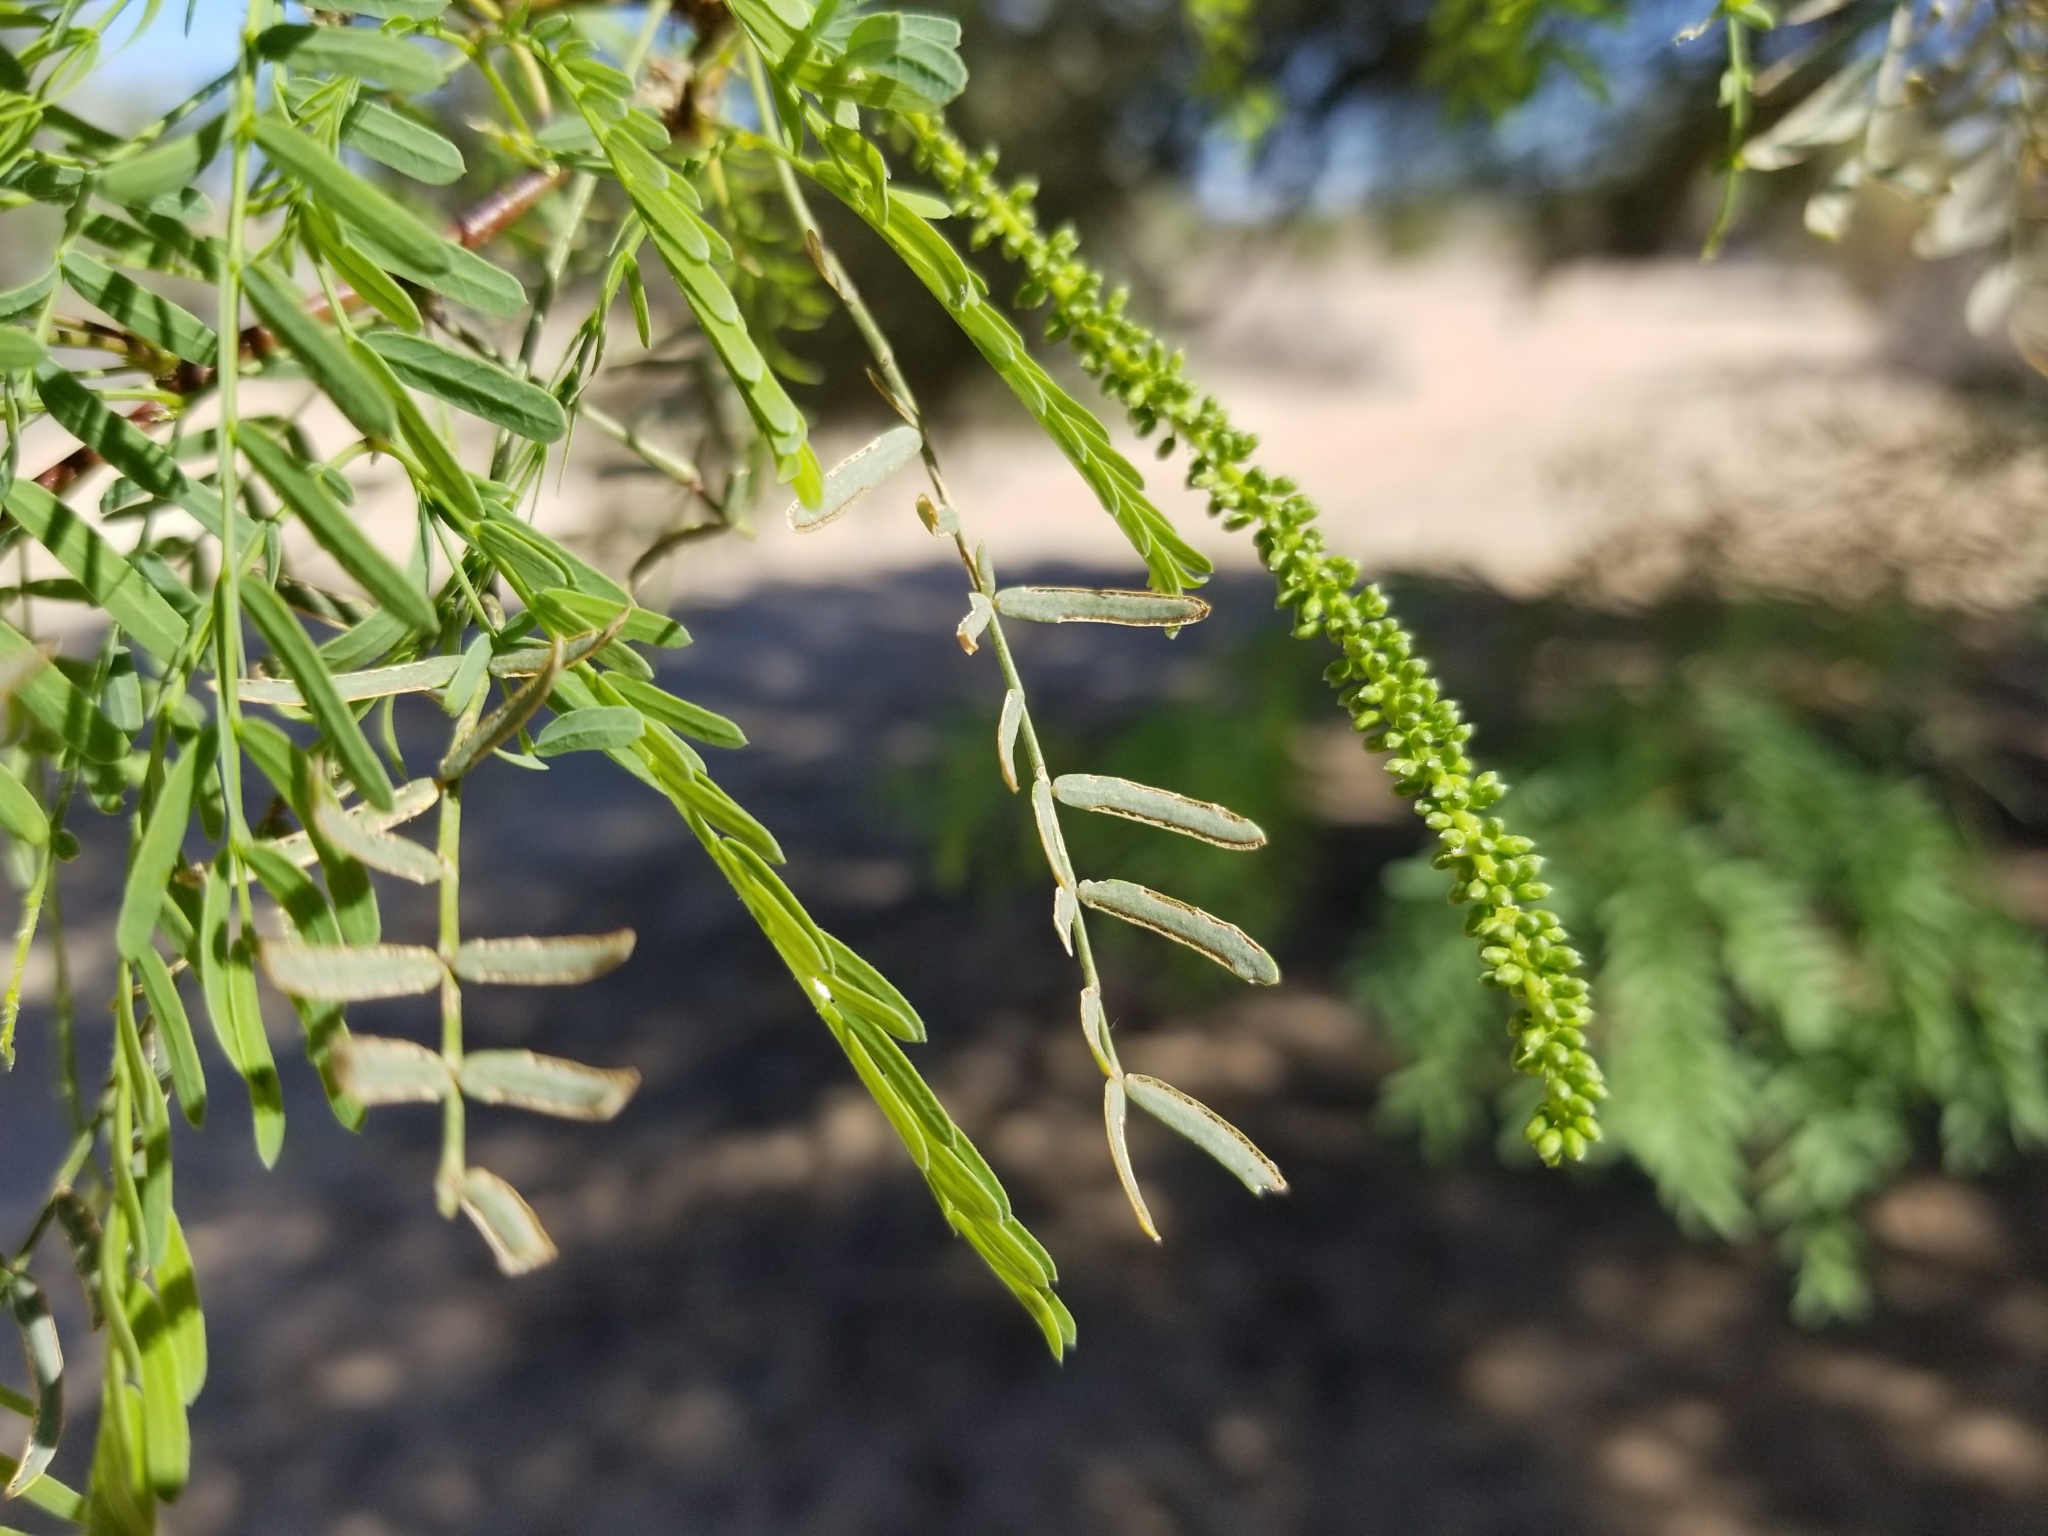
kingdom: Plantae
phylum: Tracheophyta
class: Magnoliopsida
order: Fabales
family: Fabaceae
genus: Prosopis
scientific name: Prosopis pubescens
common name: Screw-bean
